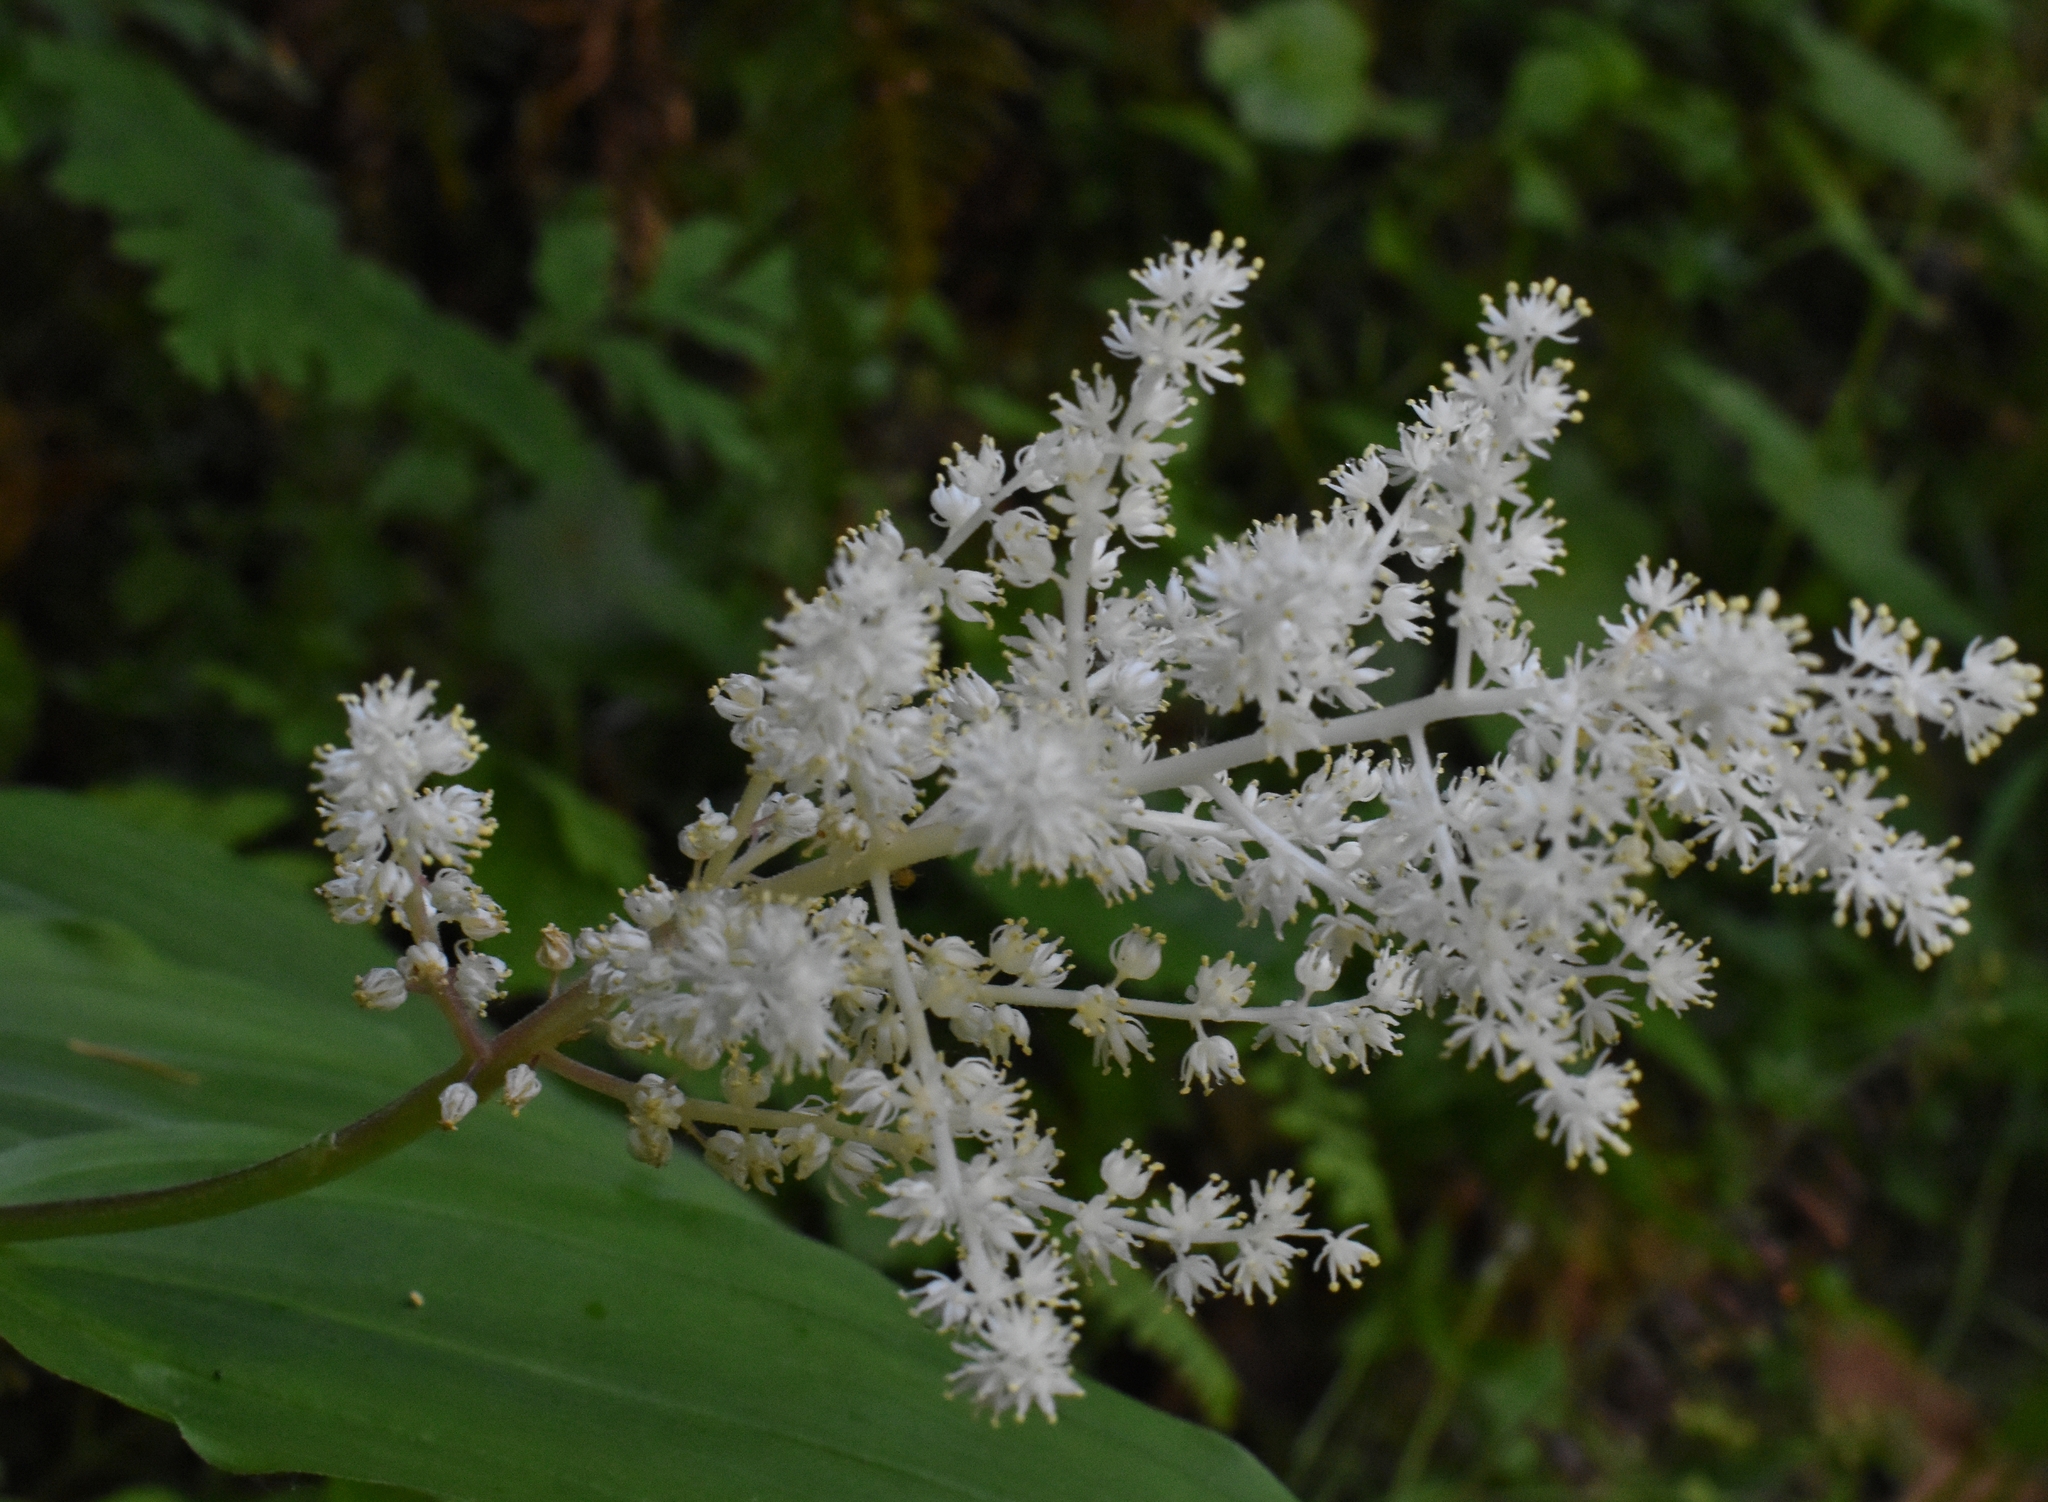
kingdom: Plantae
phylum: Tracheophyta
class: Liliopsida
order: Asparagales
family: Asparagaceae
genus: Maianthemum
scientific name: Maianthemum racemosum
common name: False spikenard
